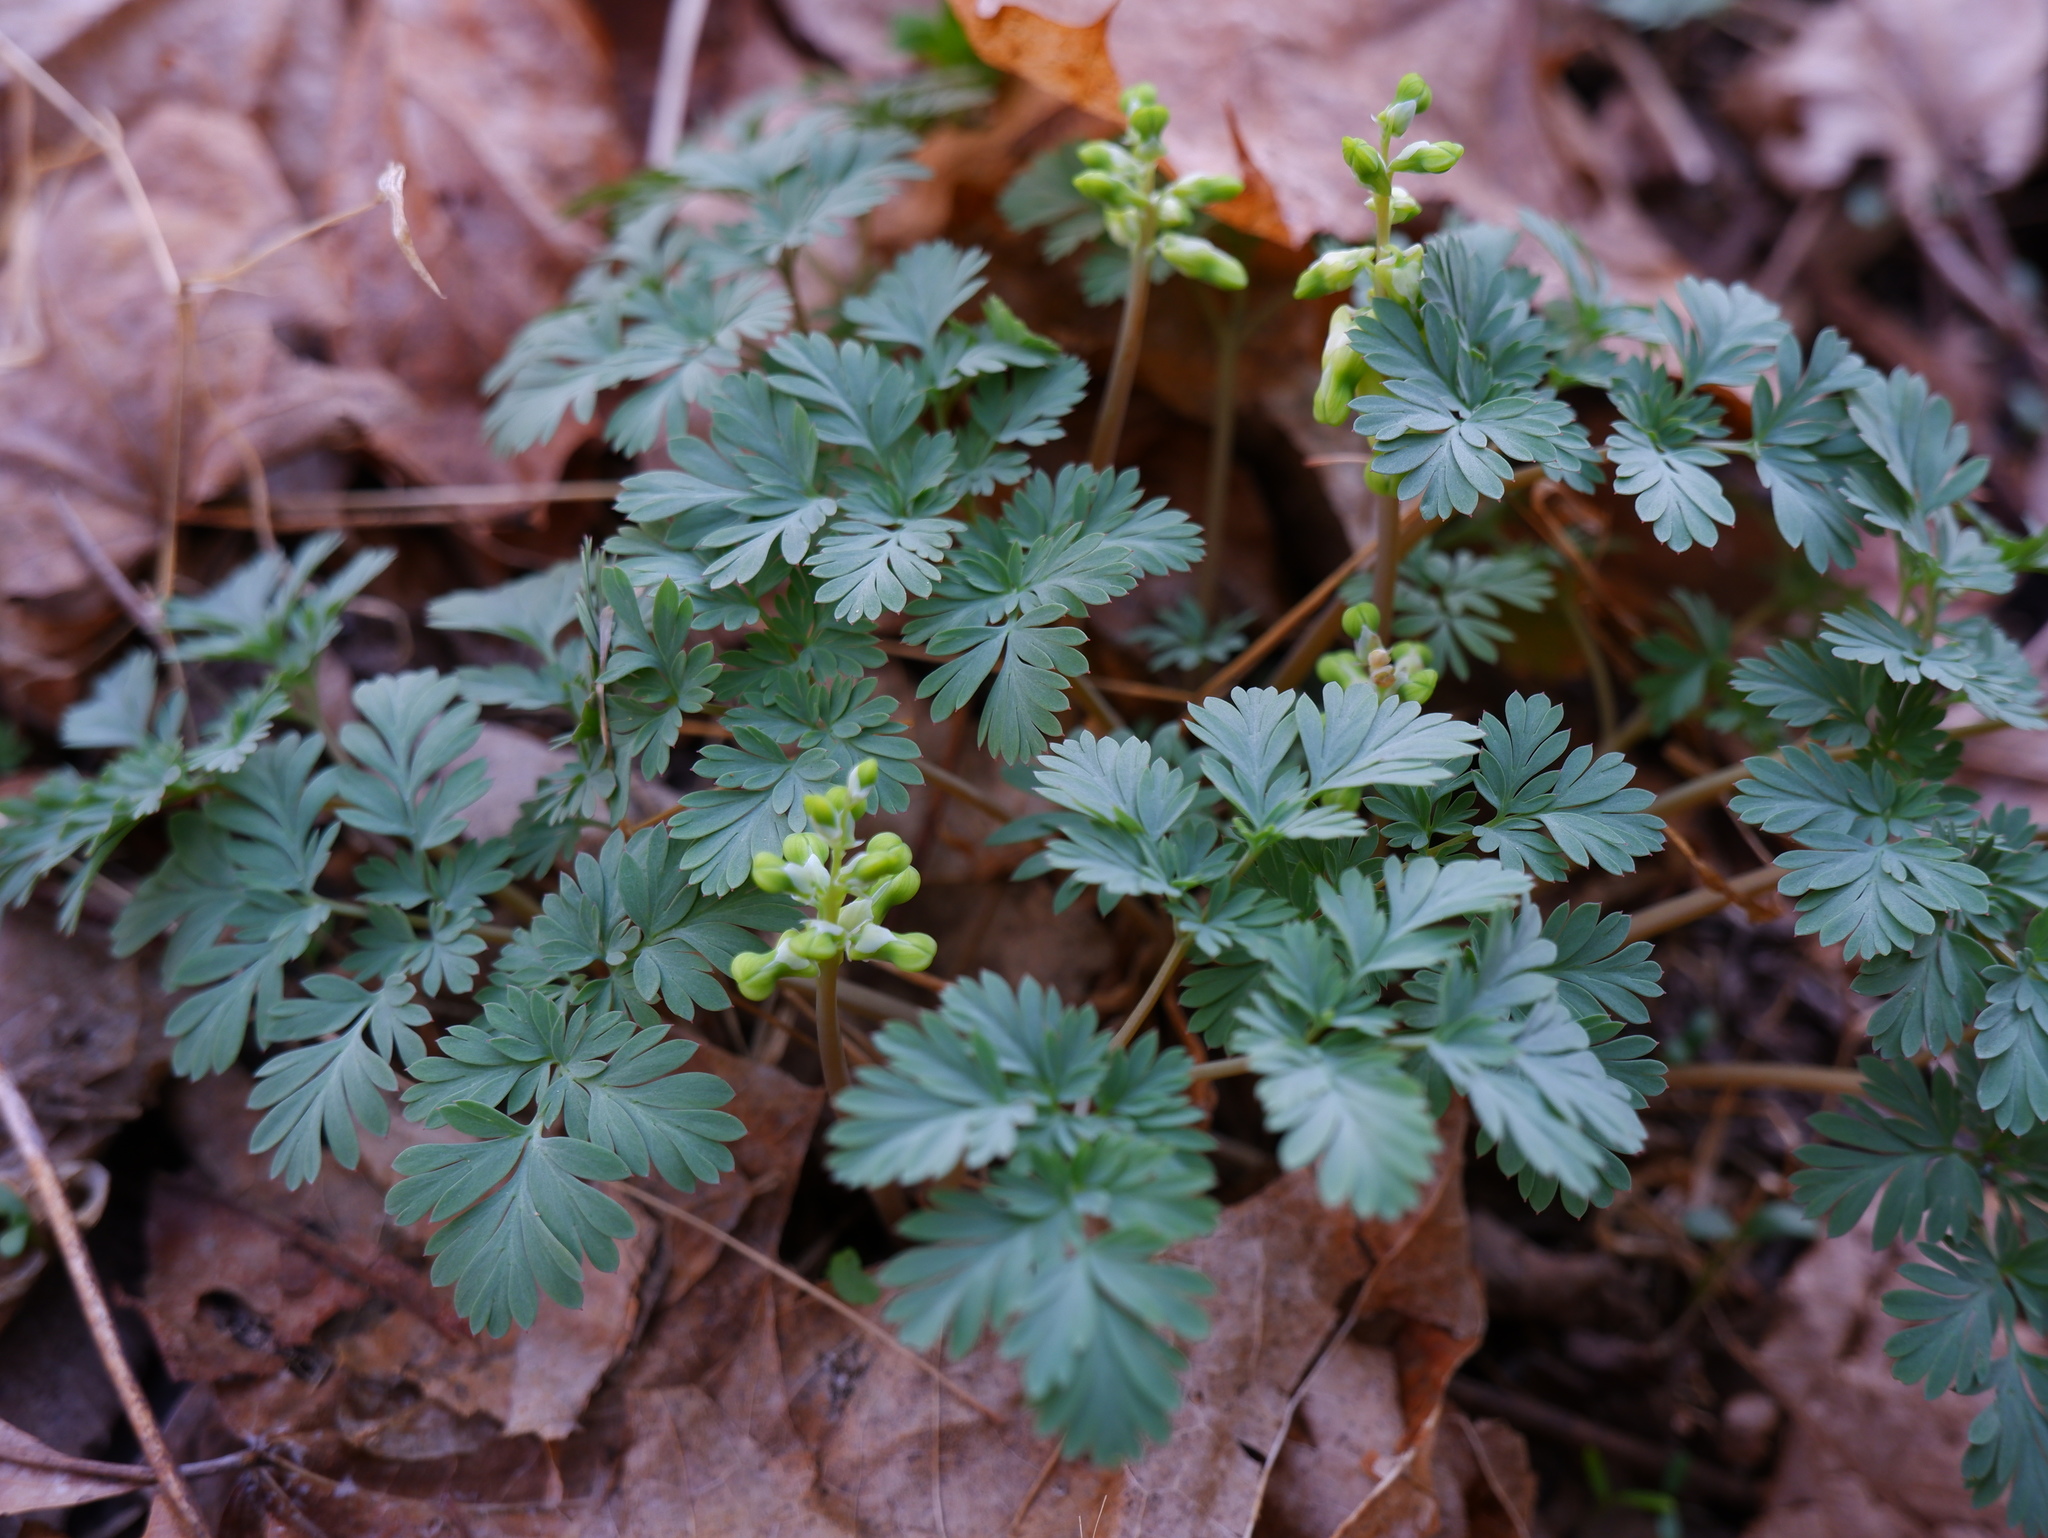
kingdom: Plantae
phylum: Tracheophyta
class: Magnoliopsida
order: Ranunculales
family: Papaveraceae
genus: Dicentra
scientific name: Dicentra cucullaria
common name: Dutchman's breeches
